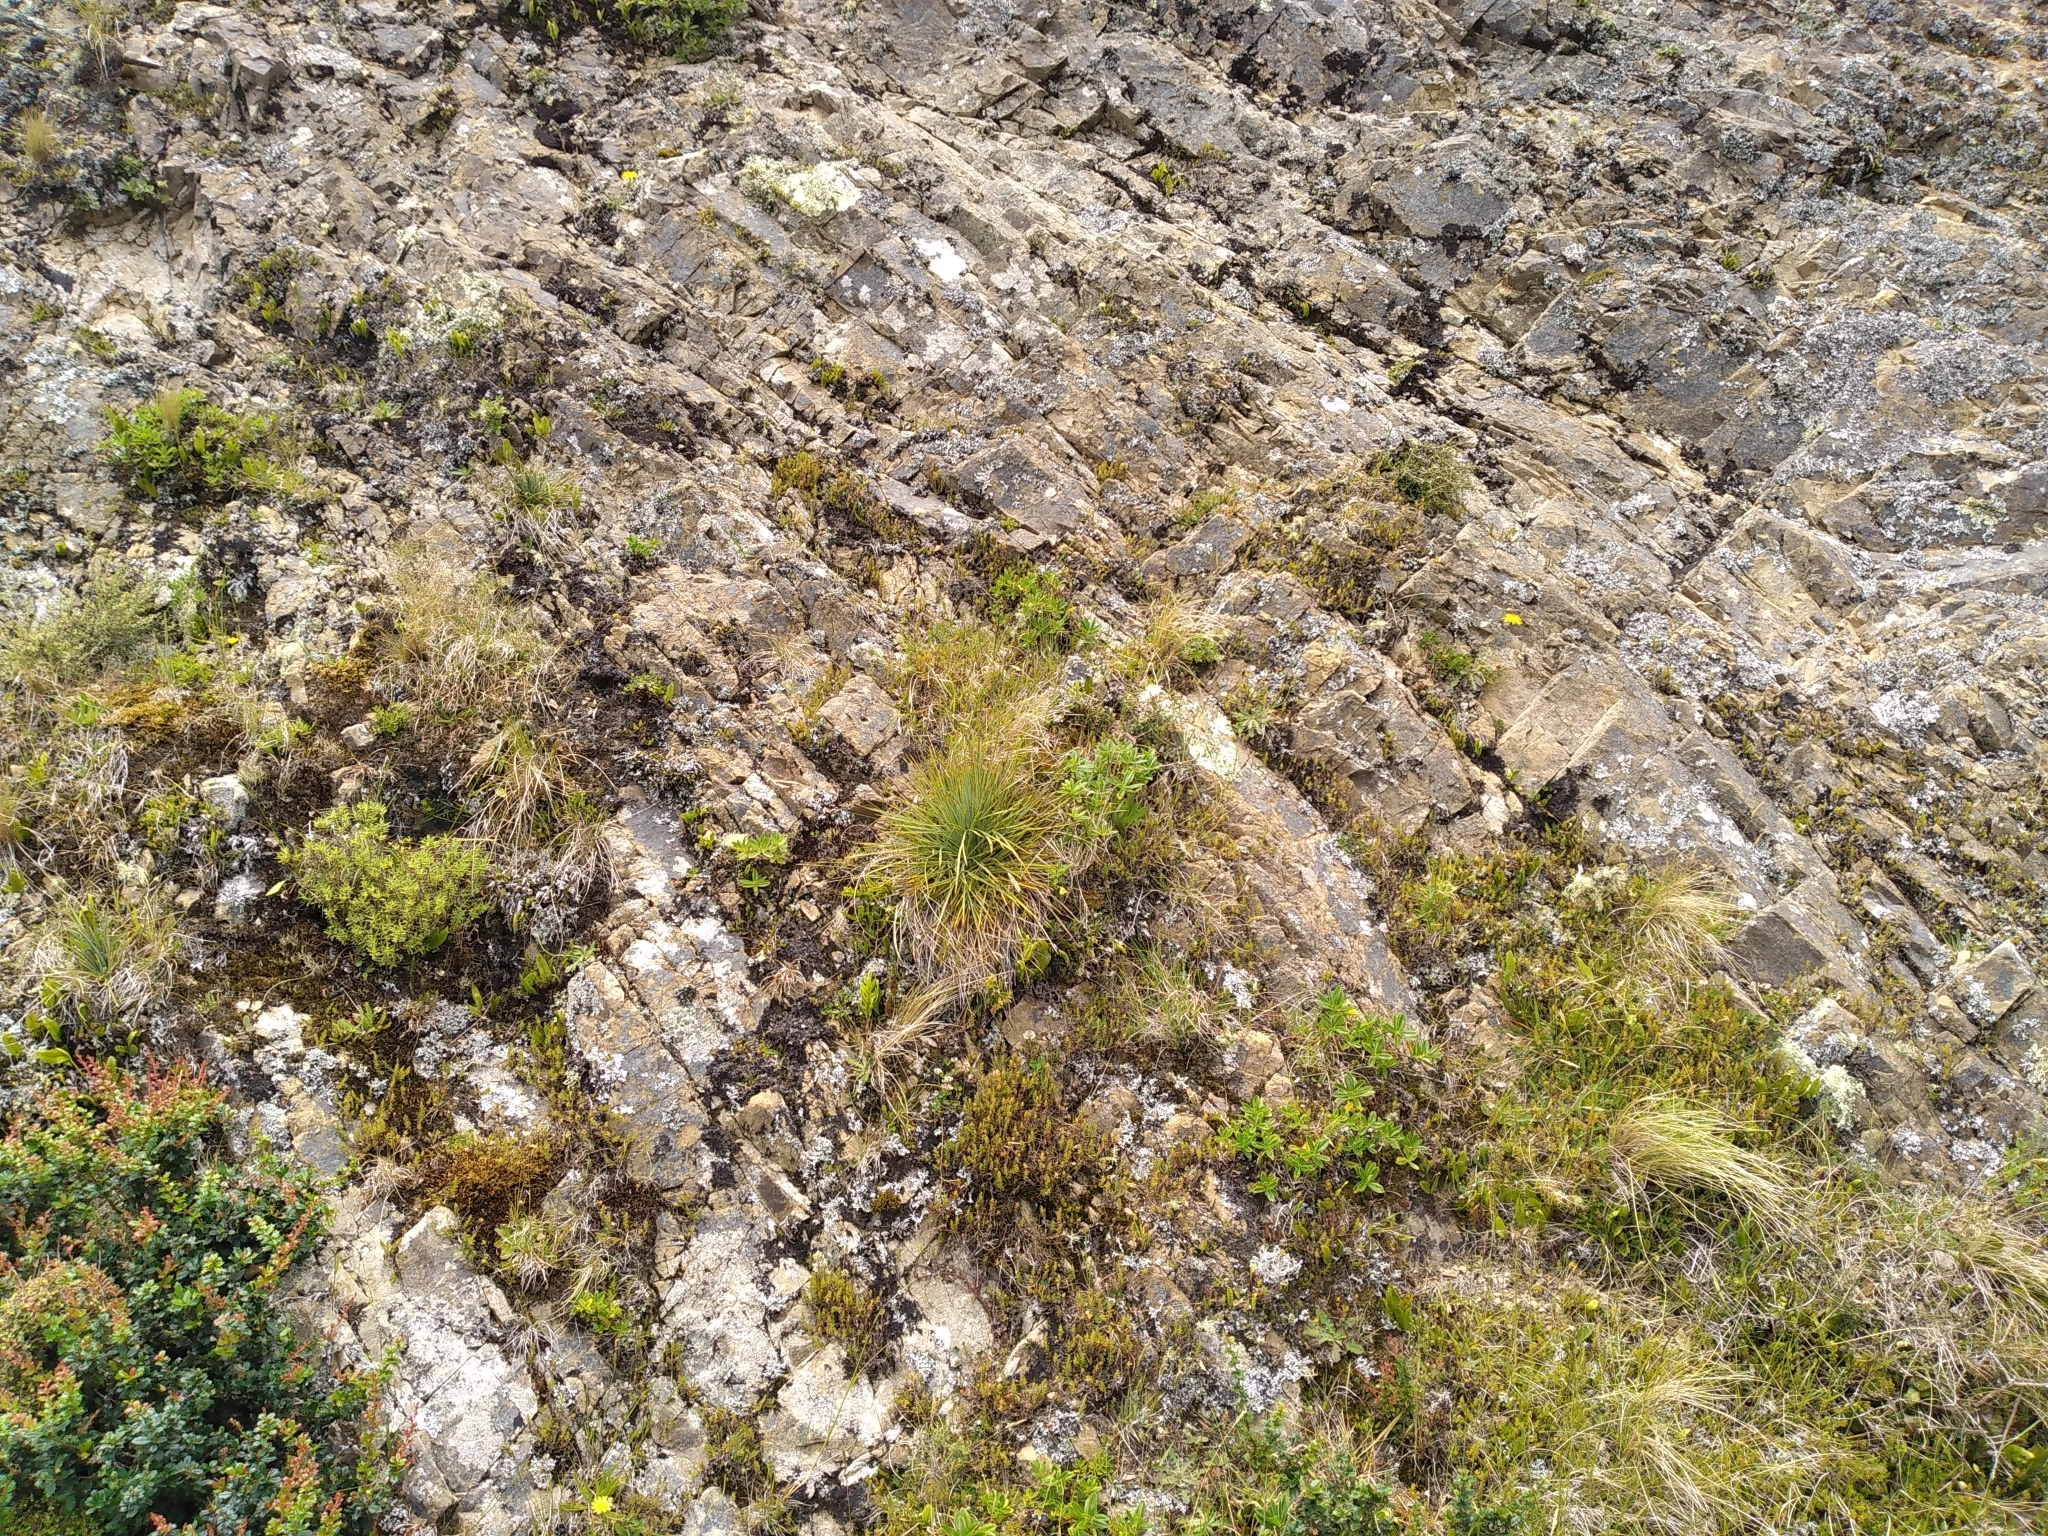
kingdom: Plantae
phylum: Tracheophyta
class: Magnoliopsida
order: Apiales
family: Apiaceae
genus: Aciphylla
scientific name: Aciphylla squarrosa
